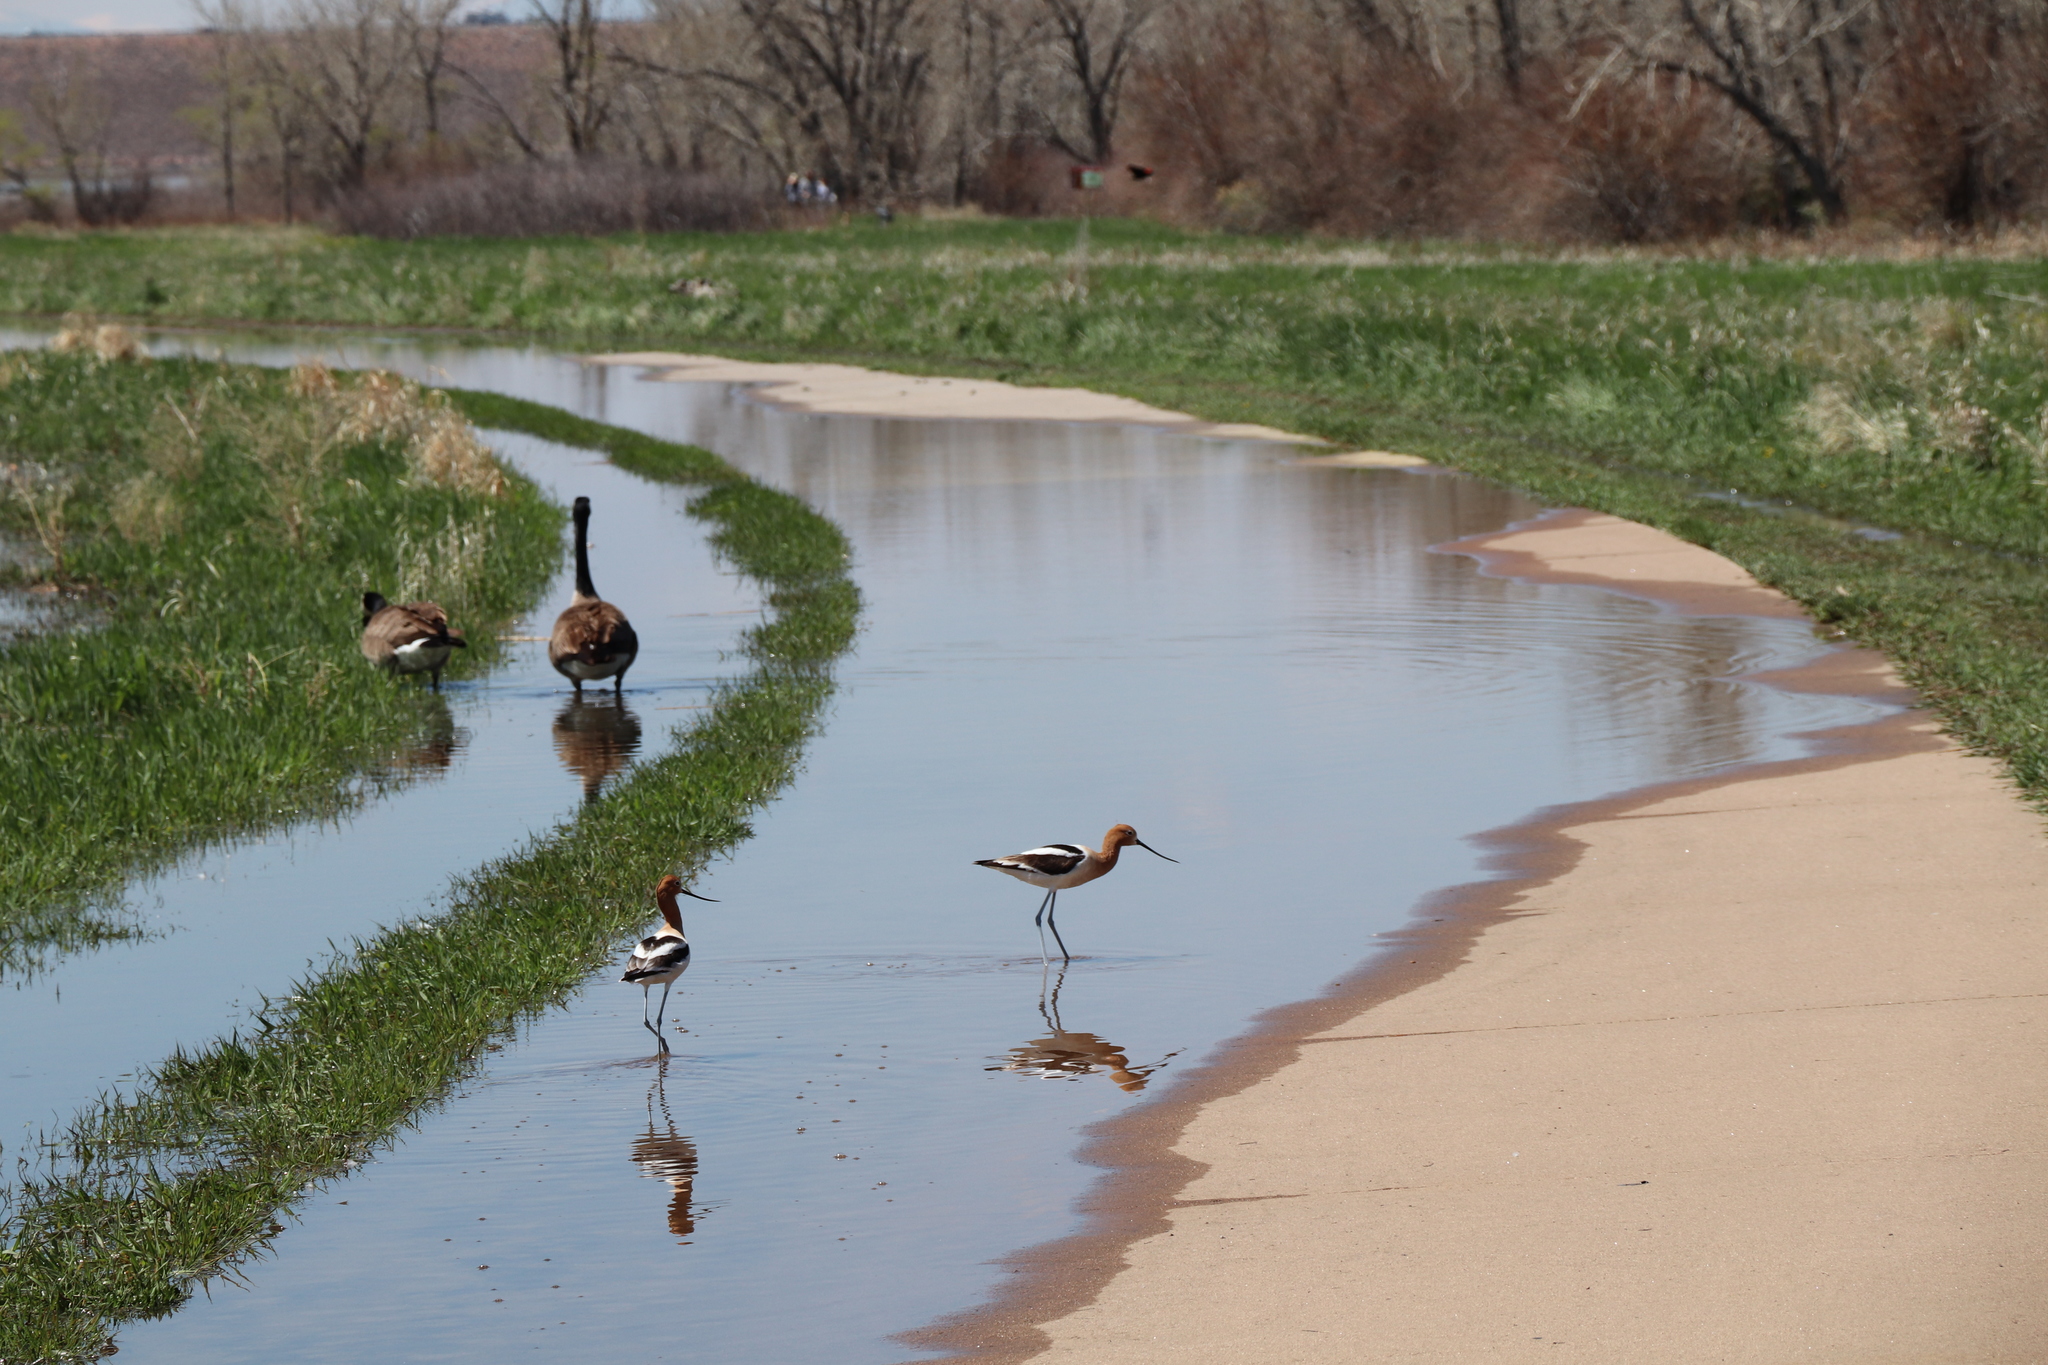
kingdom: Animalia
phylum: Chordata
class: Aves
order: Charadriiformes
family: Recurvirostridae
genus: Recurvirostra
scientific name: Recurvirostra americana
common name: American avocet
